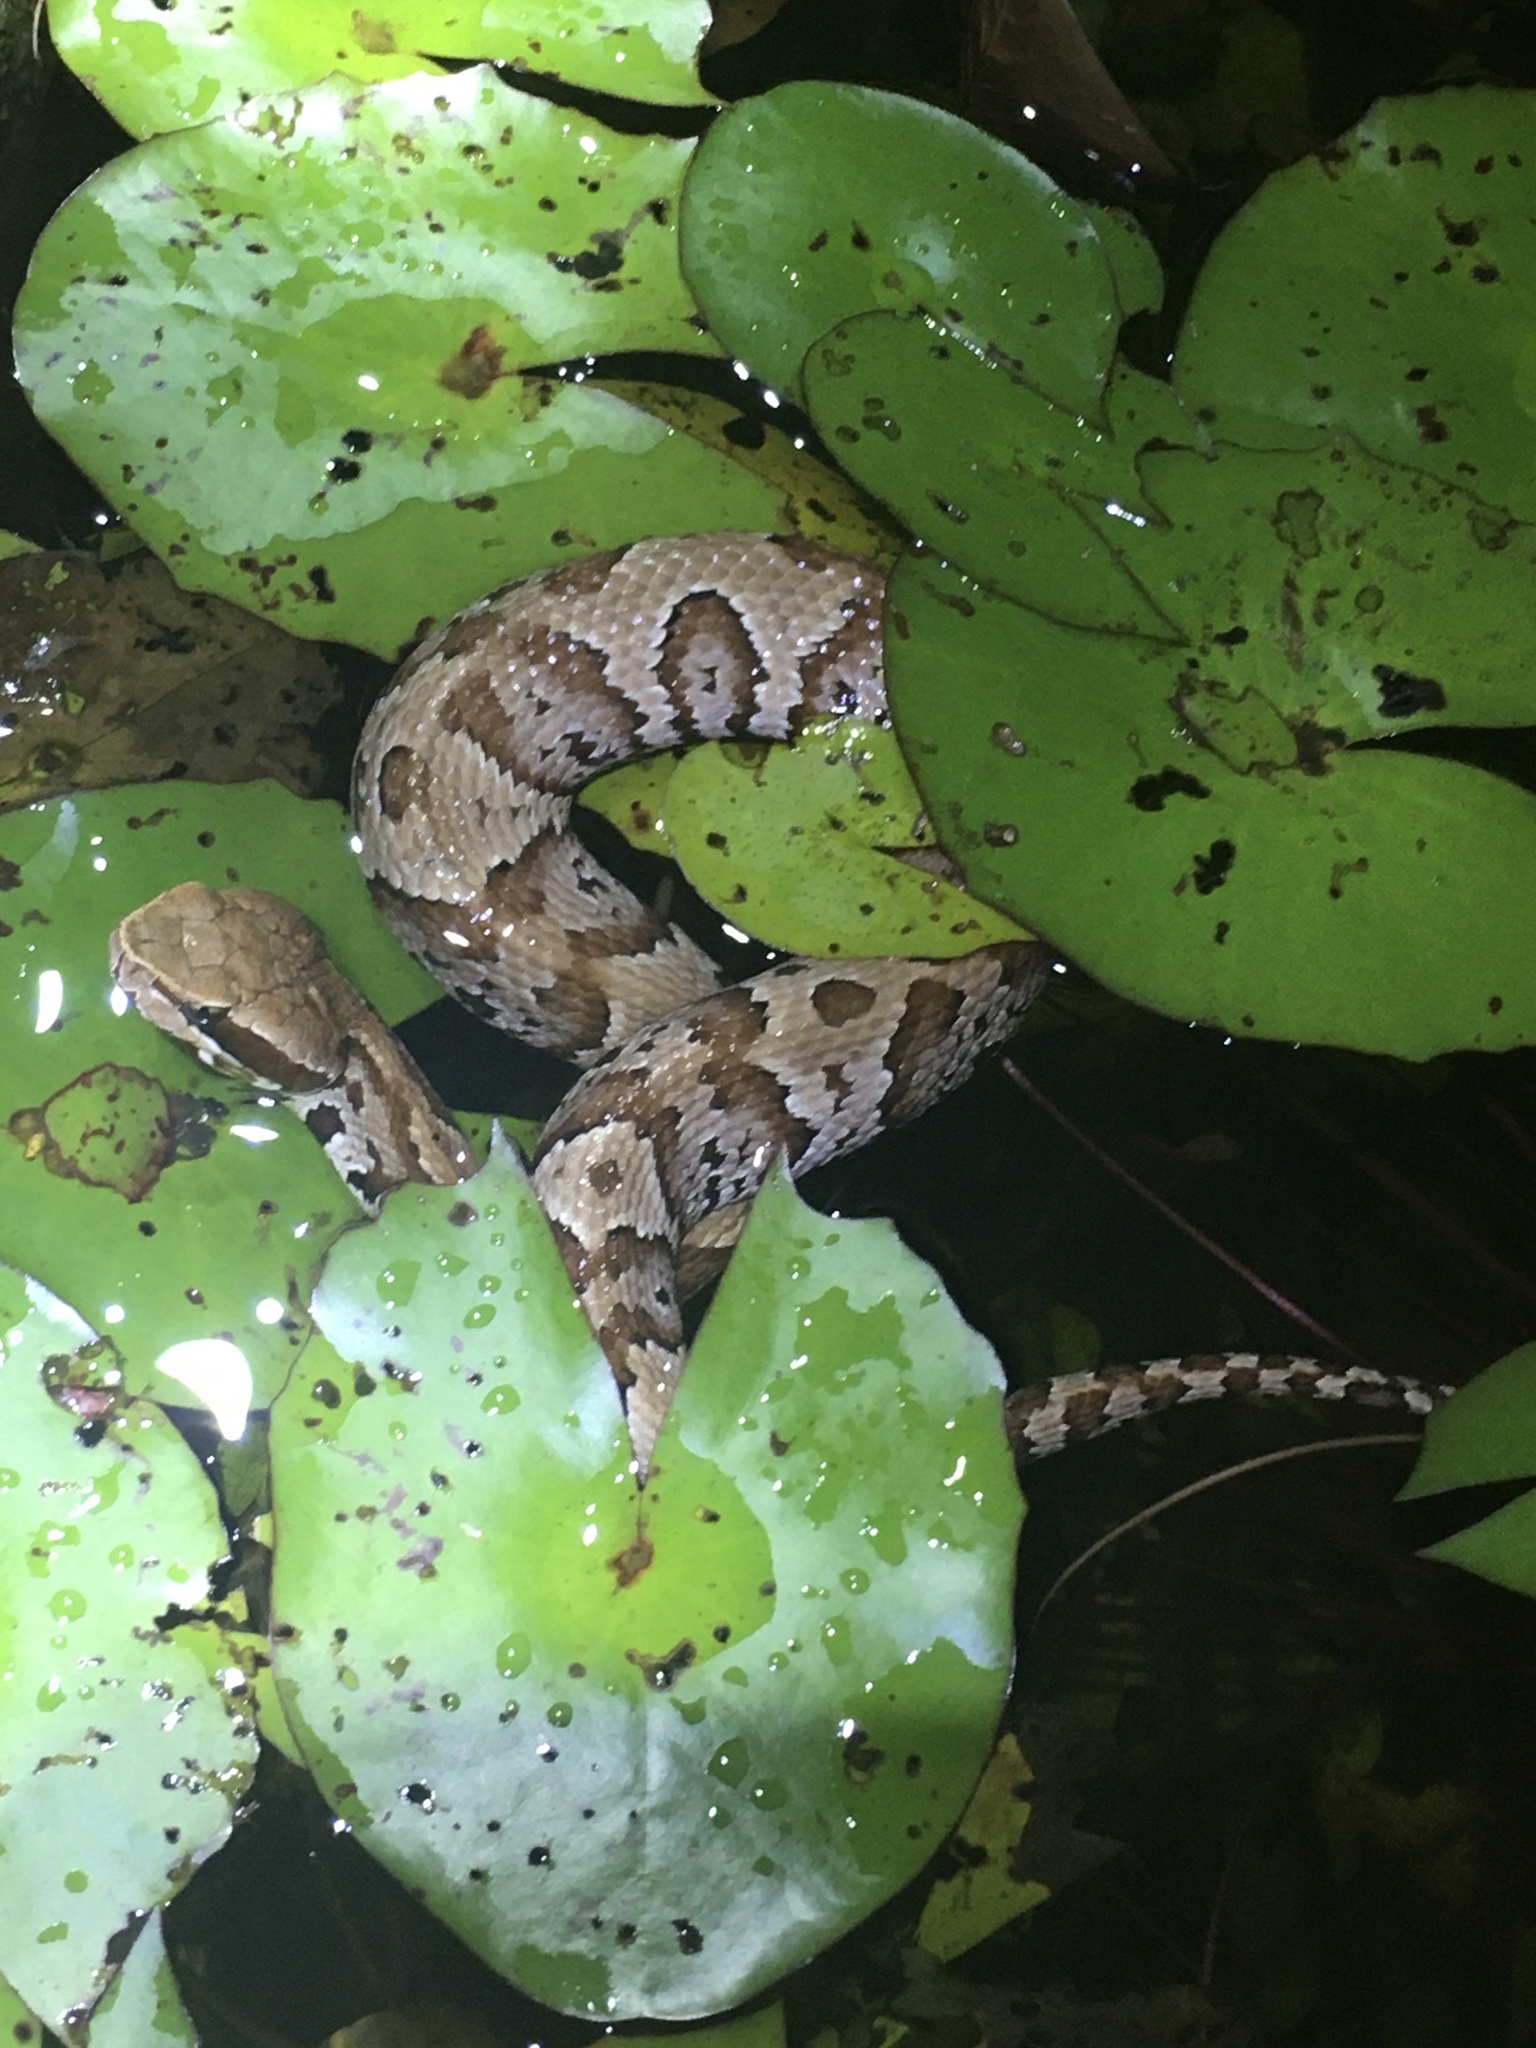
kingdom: Animalia
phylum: Chordata
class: Squamata
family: Viperidae
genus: Agkistrodon
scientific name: Agkistrodon conanti
